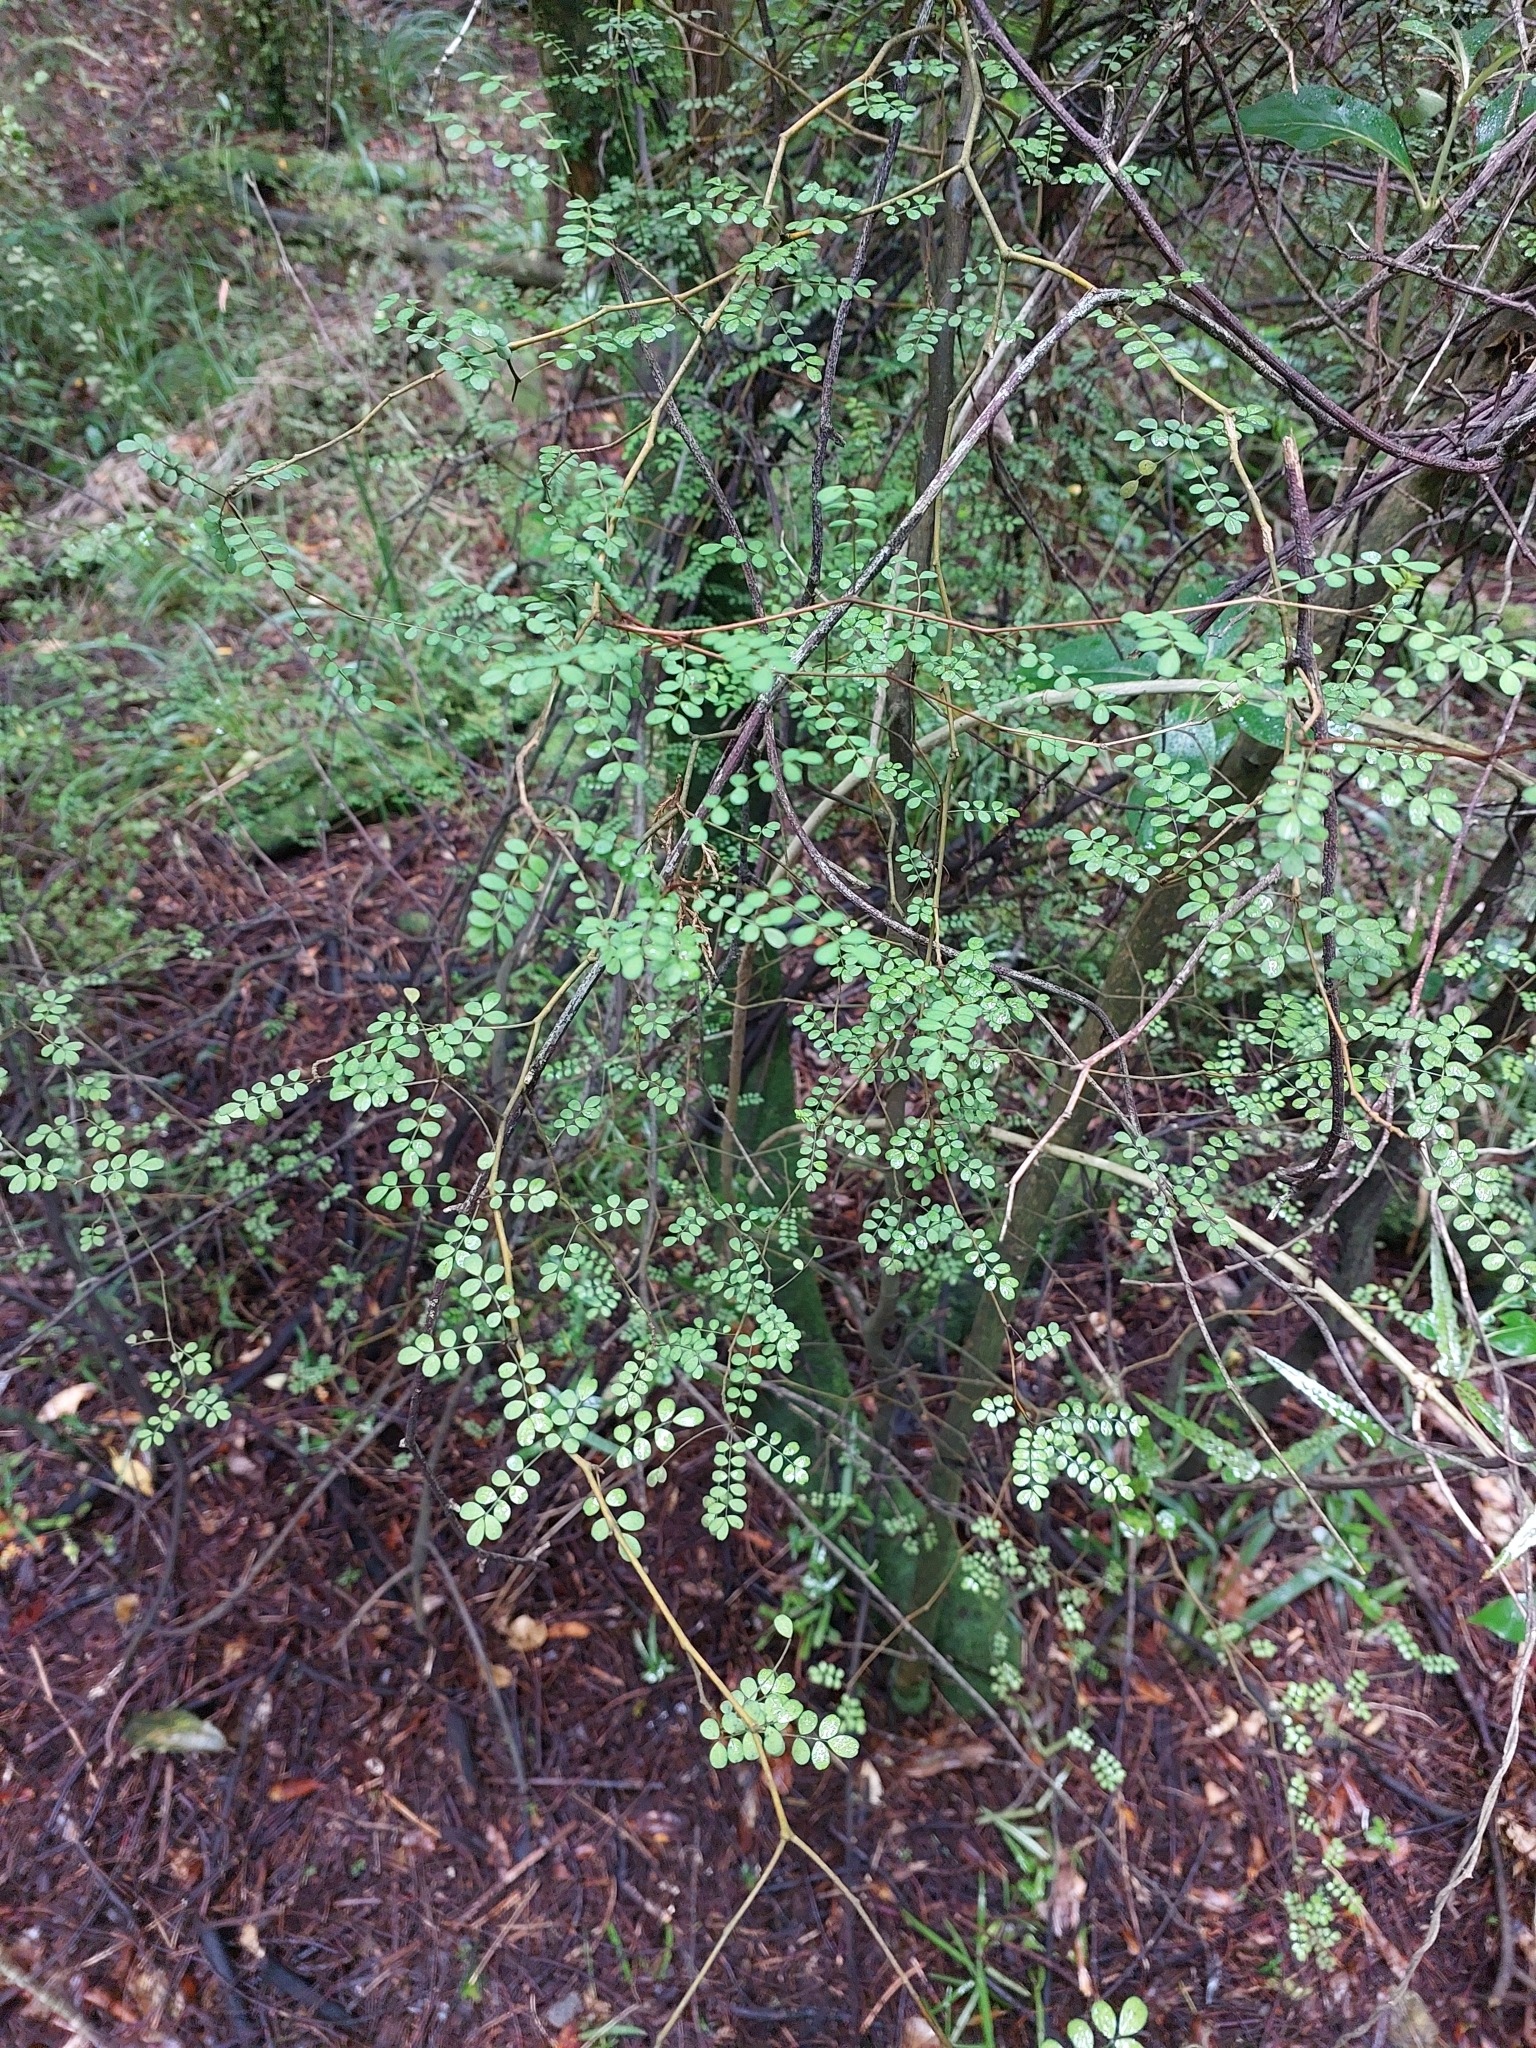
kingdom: Plantae
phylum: Tracheophyta
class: Magnoliopsida
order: Fabales
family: Fabaceae
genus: Sophora
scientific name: Sophora microphylla
